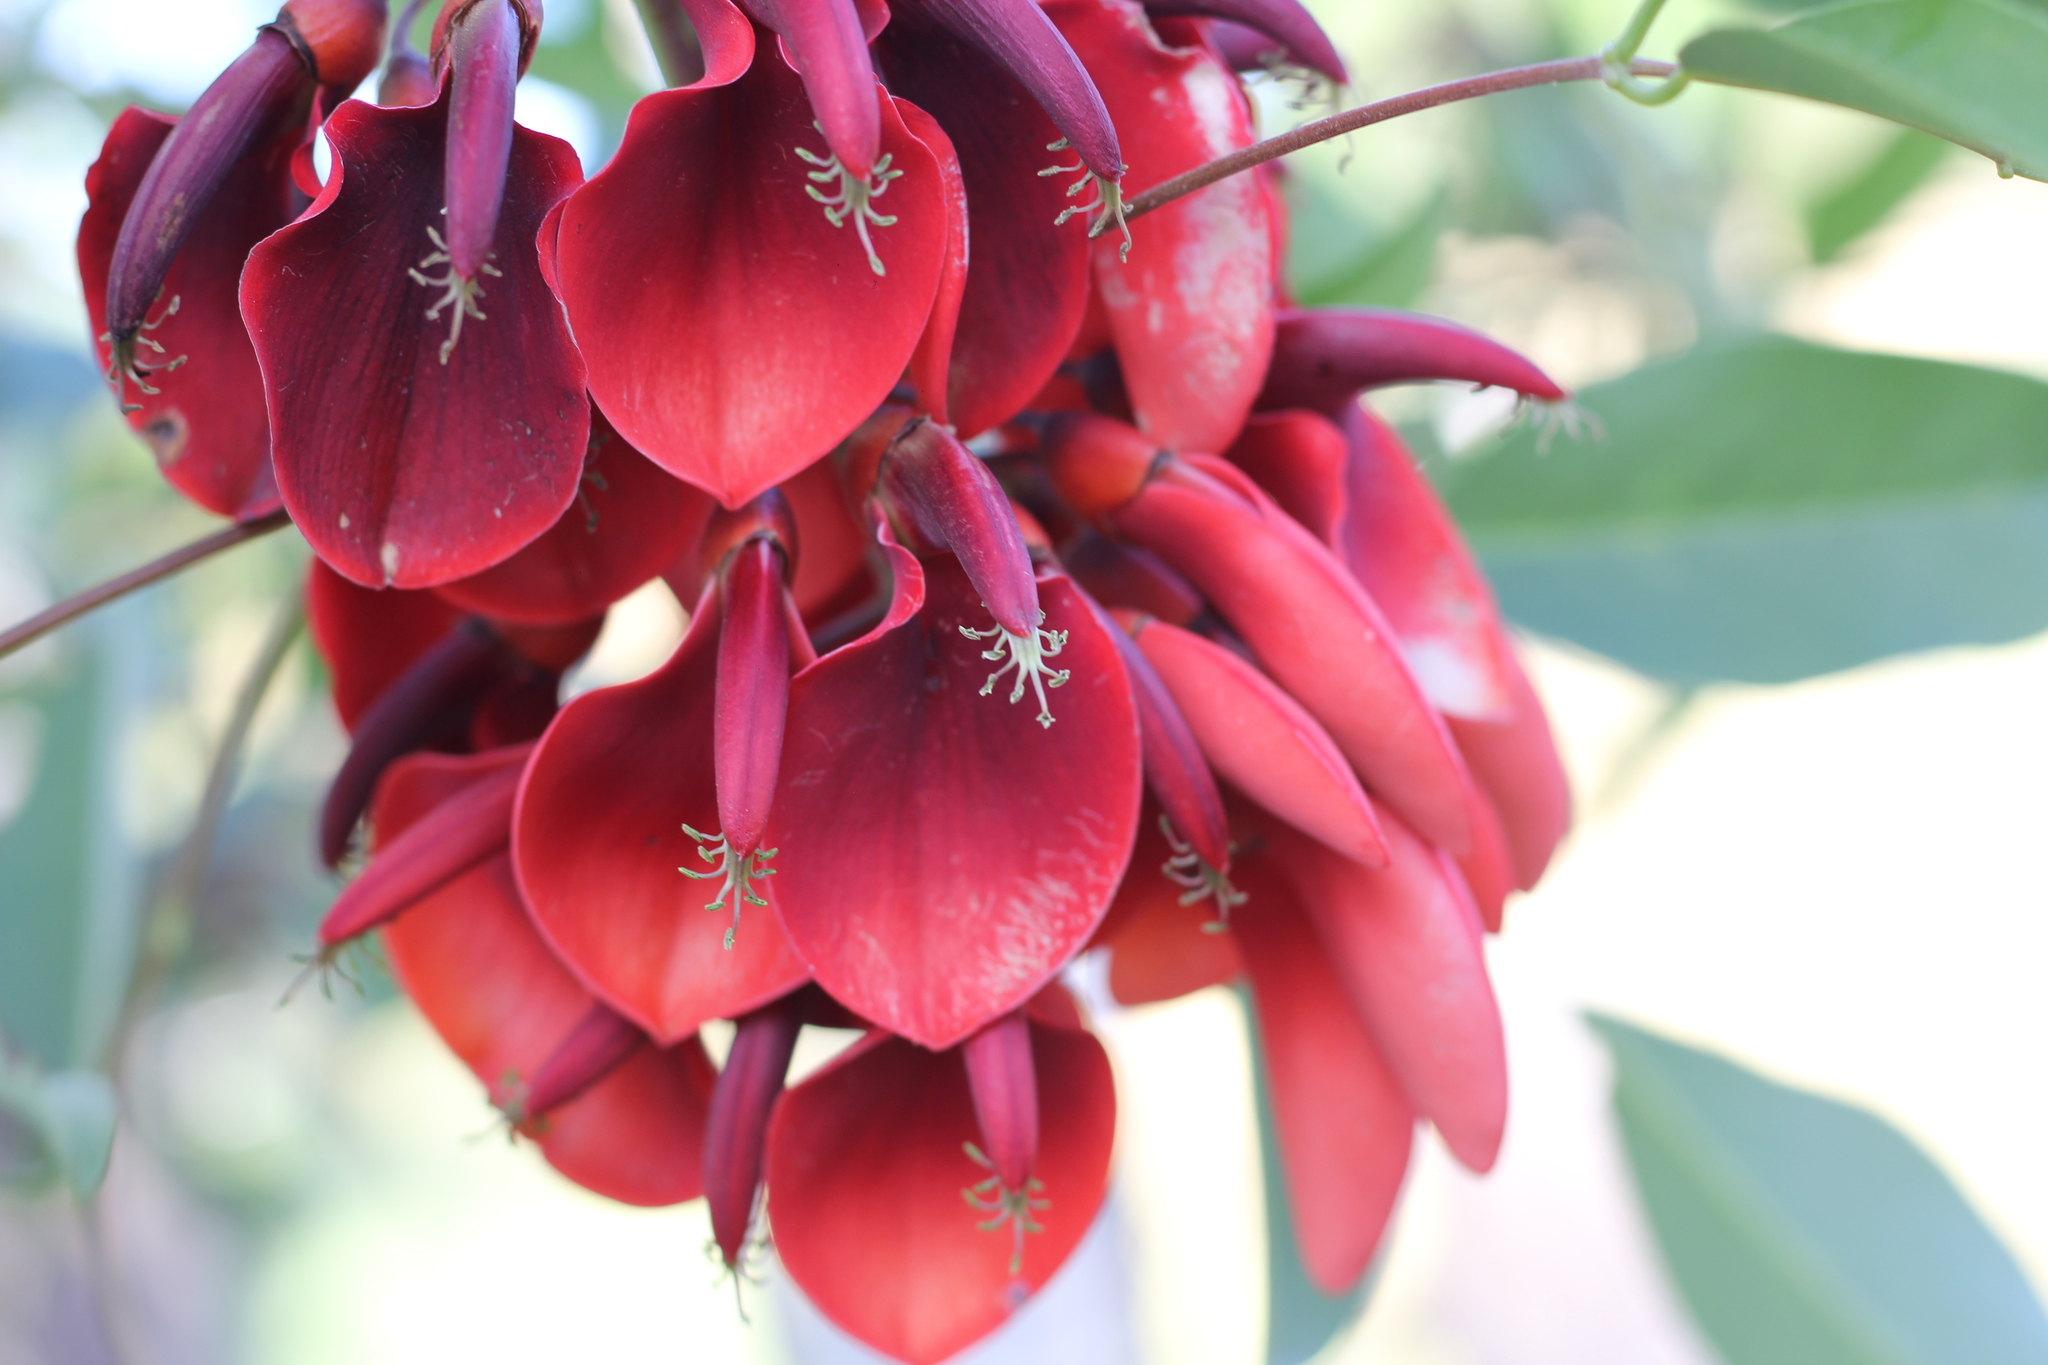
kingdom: Plantae
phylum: Tracheophyta
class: Magnoliopsida
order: Fabales
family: Fabaceae
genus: Erythrina
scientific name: Erythrina crista-galli
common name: Cockspur coral tree
